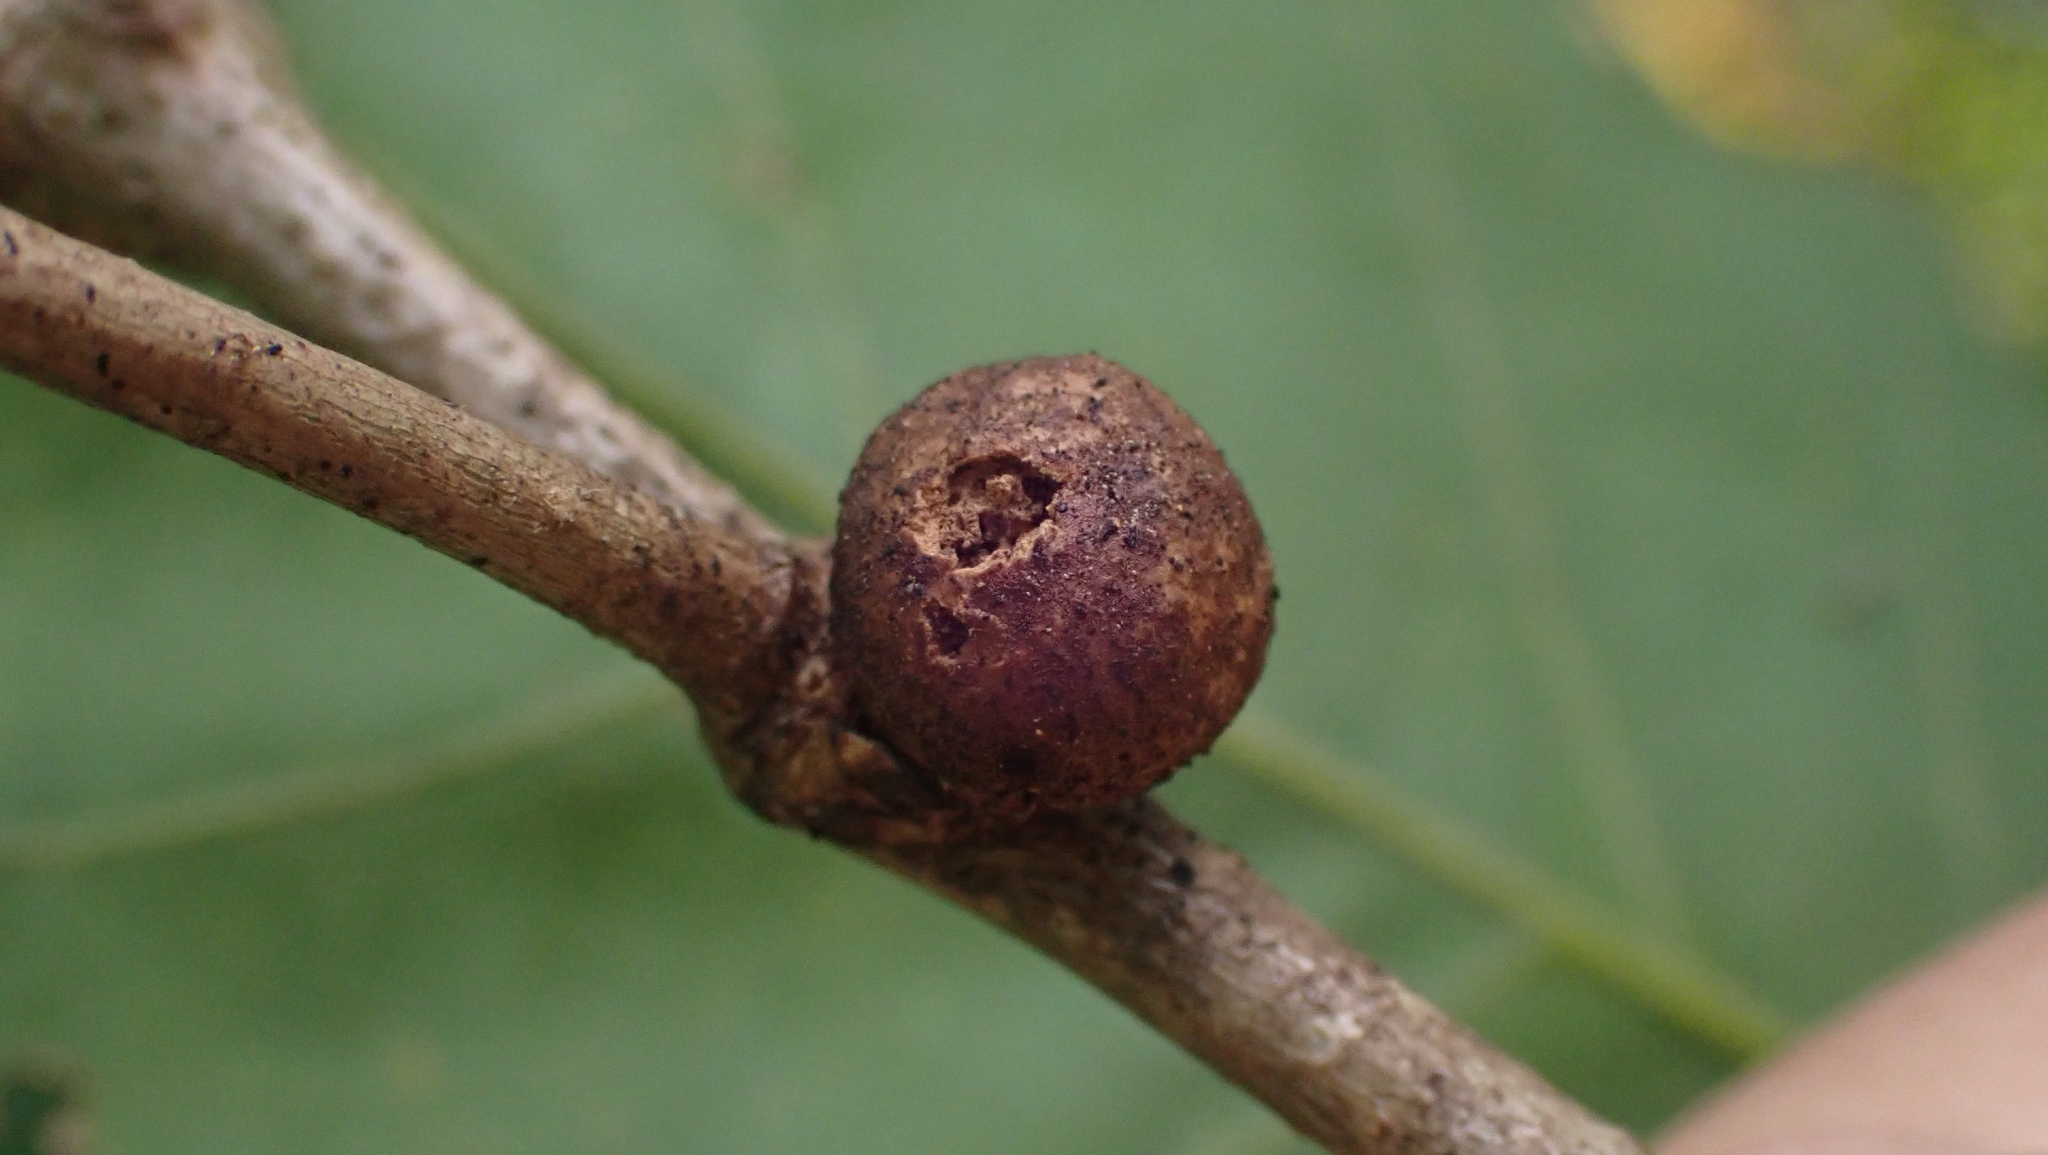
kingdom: Animalia
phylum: Arthropoda
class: Insecta
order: Hymenoptera
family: Cynipidae
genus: Disholcaspis
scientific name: Disholcaspis quercusglobulus
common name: Round bullet gall wasp
